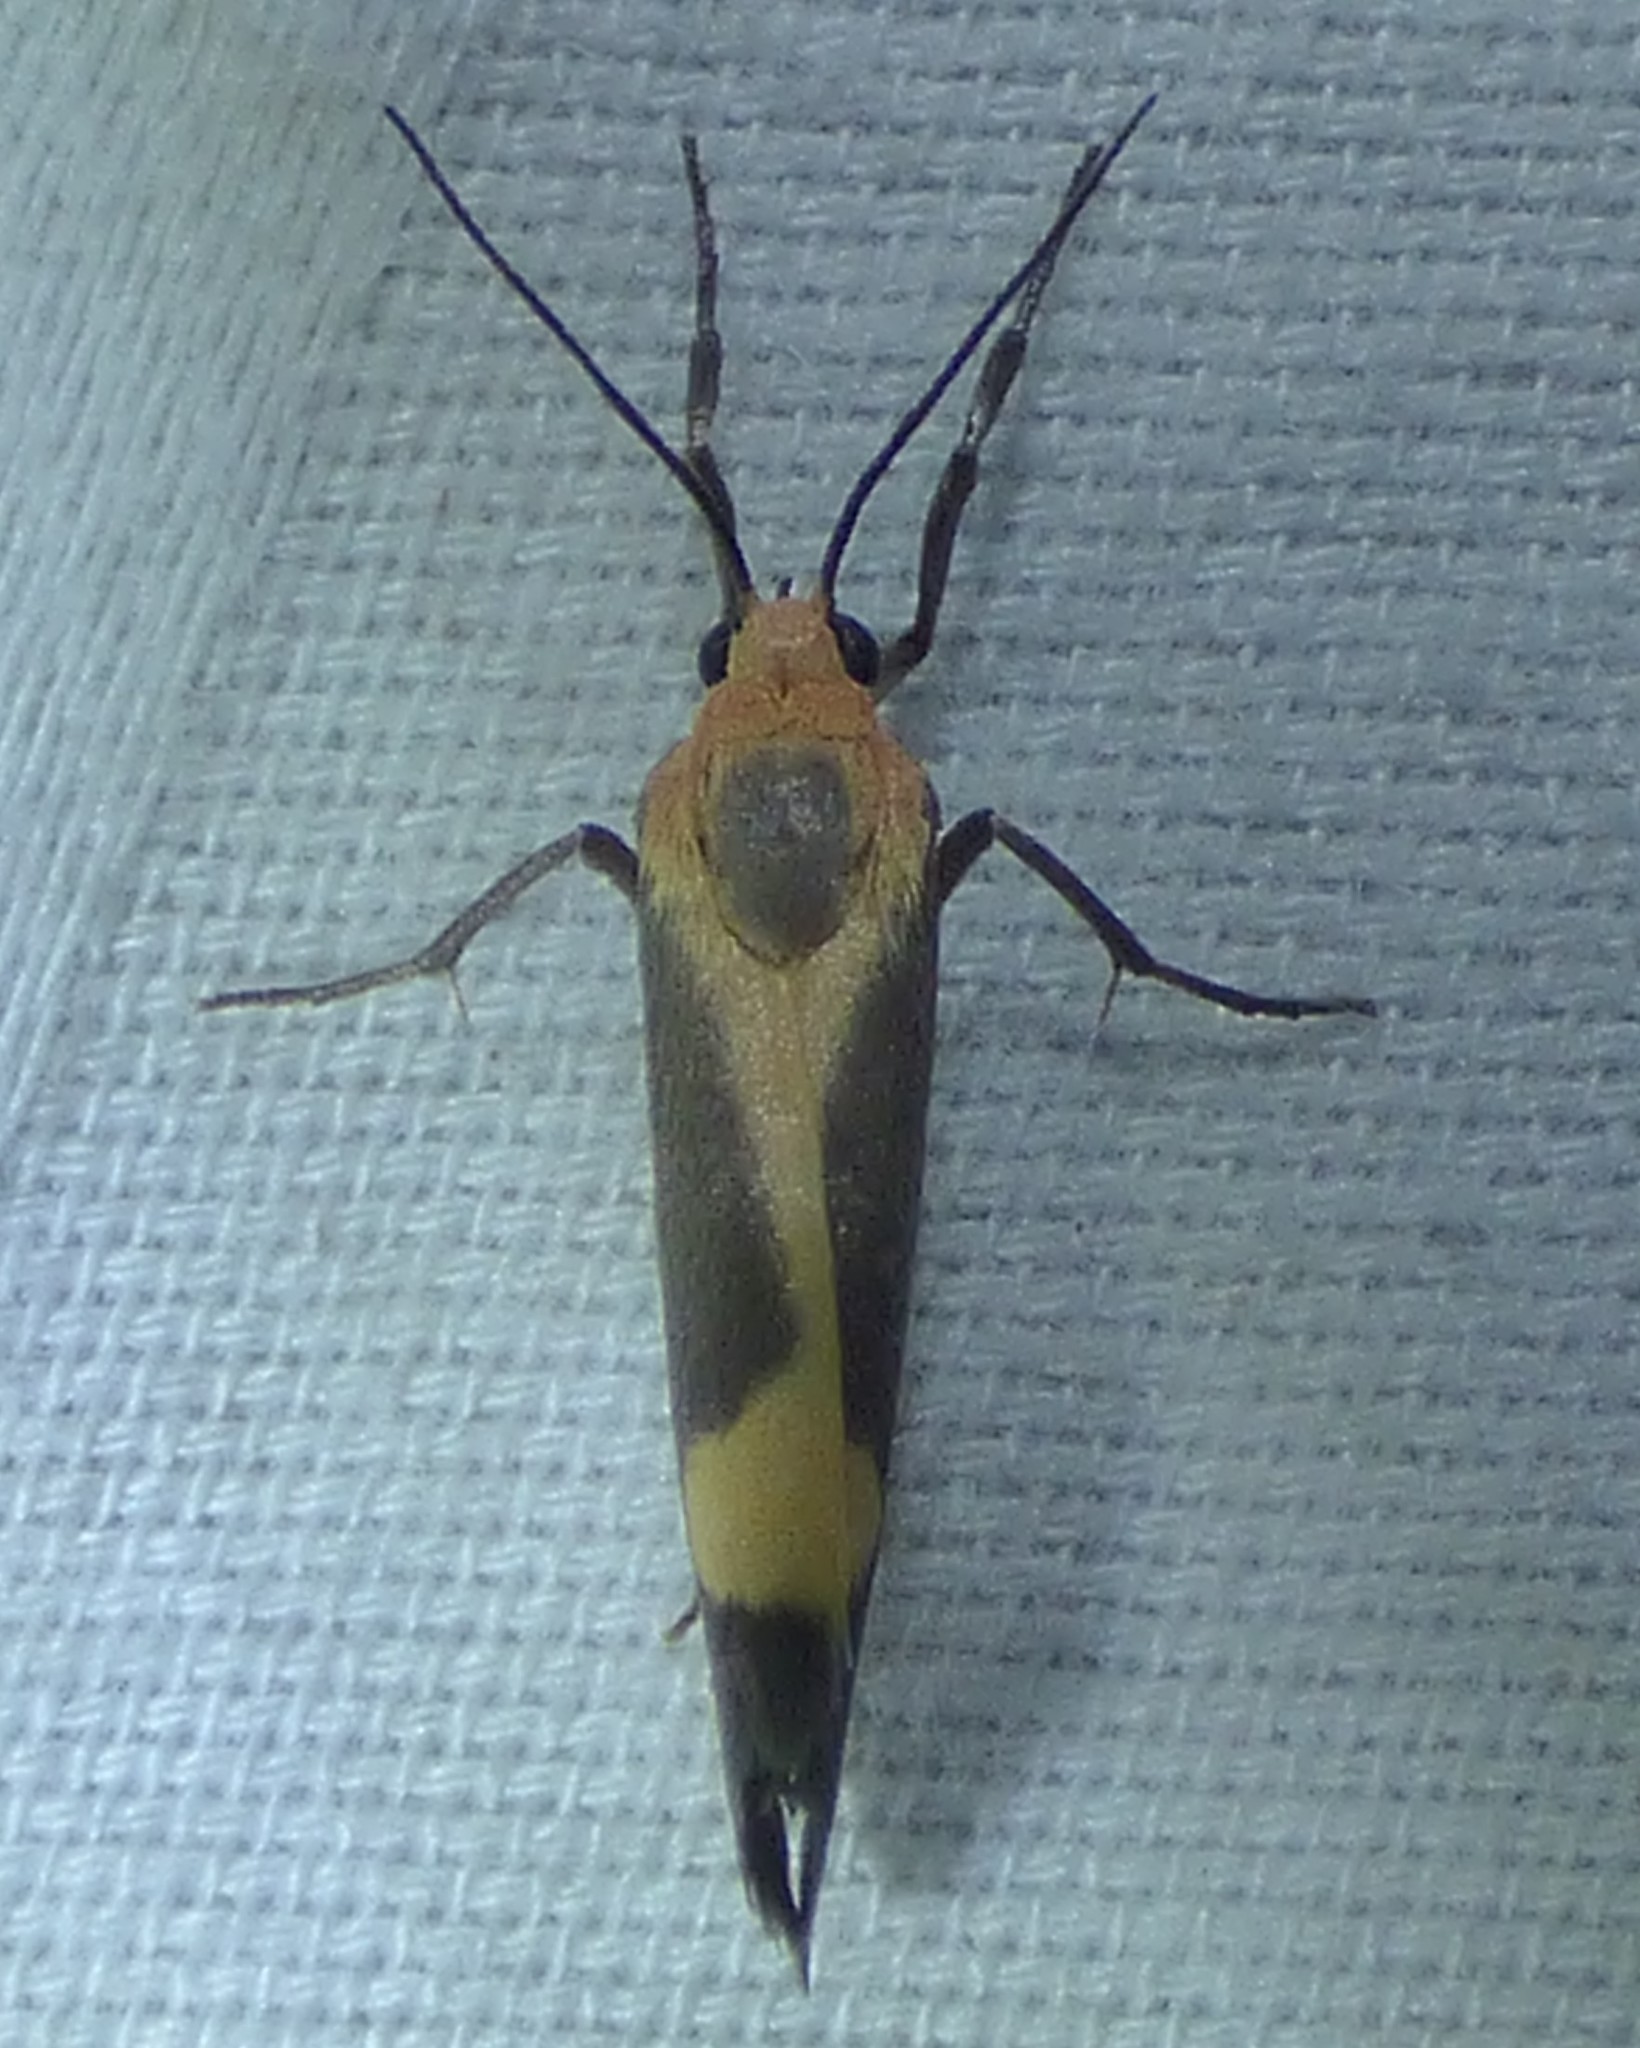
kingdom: Animalia
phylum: Arthropoda
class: Insecta
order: Lepidoptera
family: Erebidae
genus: Cisthene
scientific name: Cisthene plumbea
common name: Lead colored lichen moth
